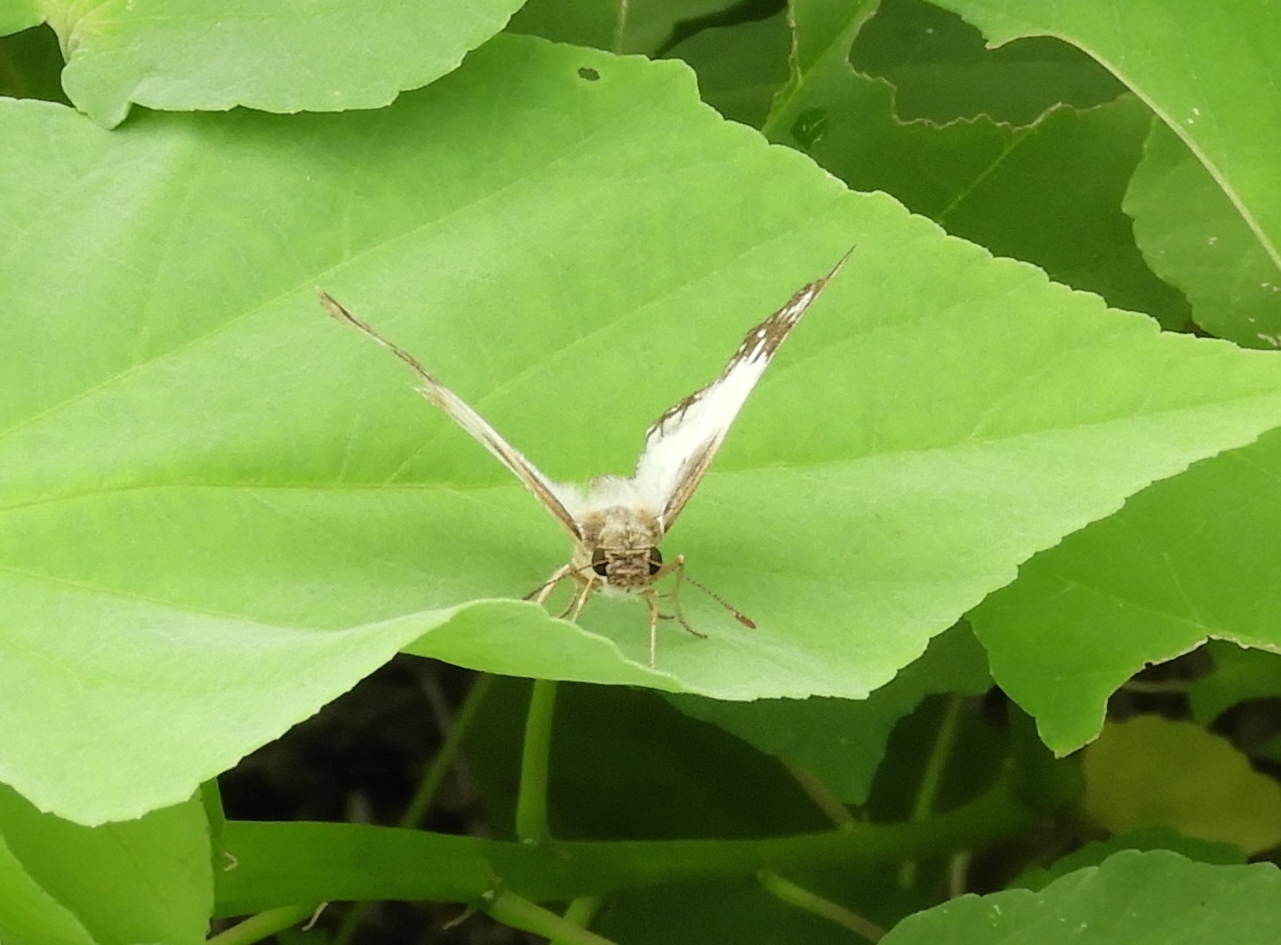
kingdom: Animalia
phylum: Arthropoda
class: Insecta
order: Lepidoptera
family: Hesperiidae
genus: Heliopetes
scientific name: Heliopetes
